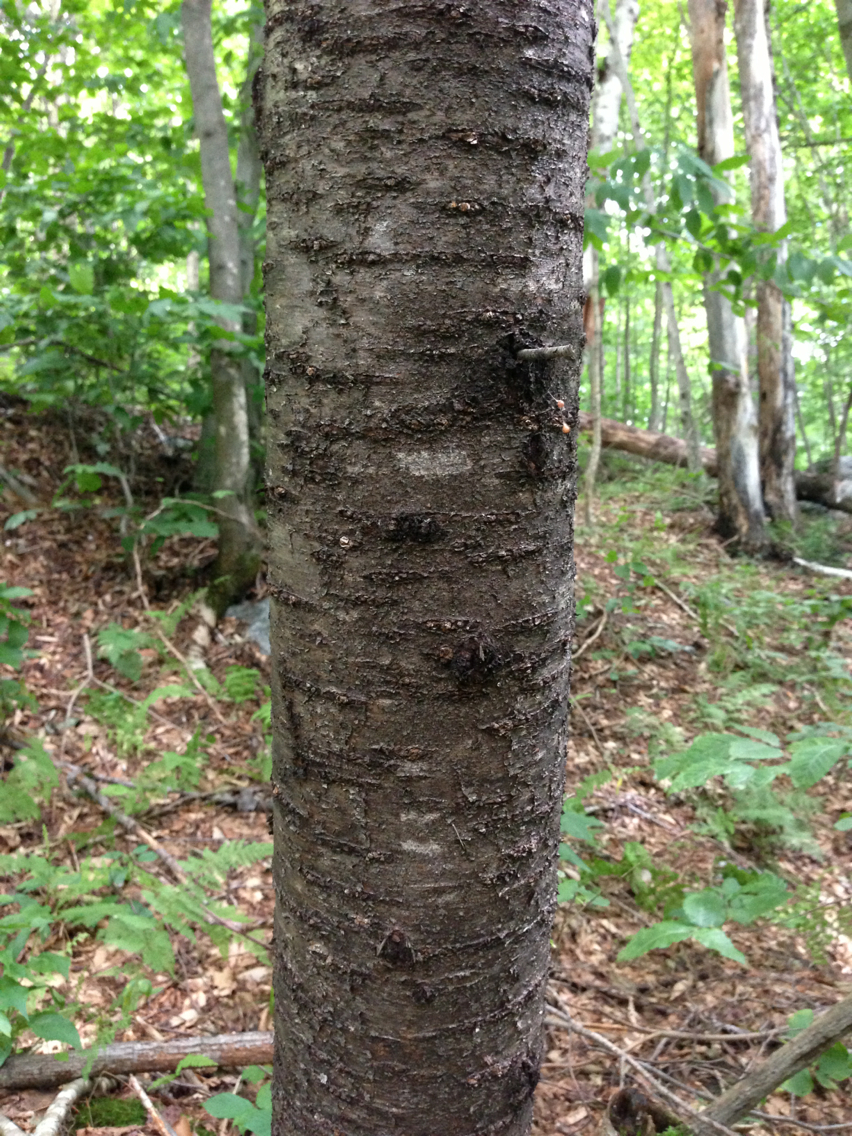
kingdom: Plantae
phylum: Tracheophyta
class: Magnoliopsida
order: Rosales
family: Rosaceae
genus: Prunus
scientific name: Prunus pensylvanica
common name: Pin cherry
